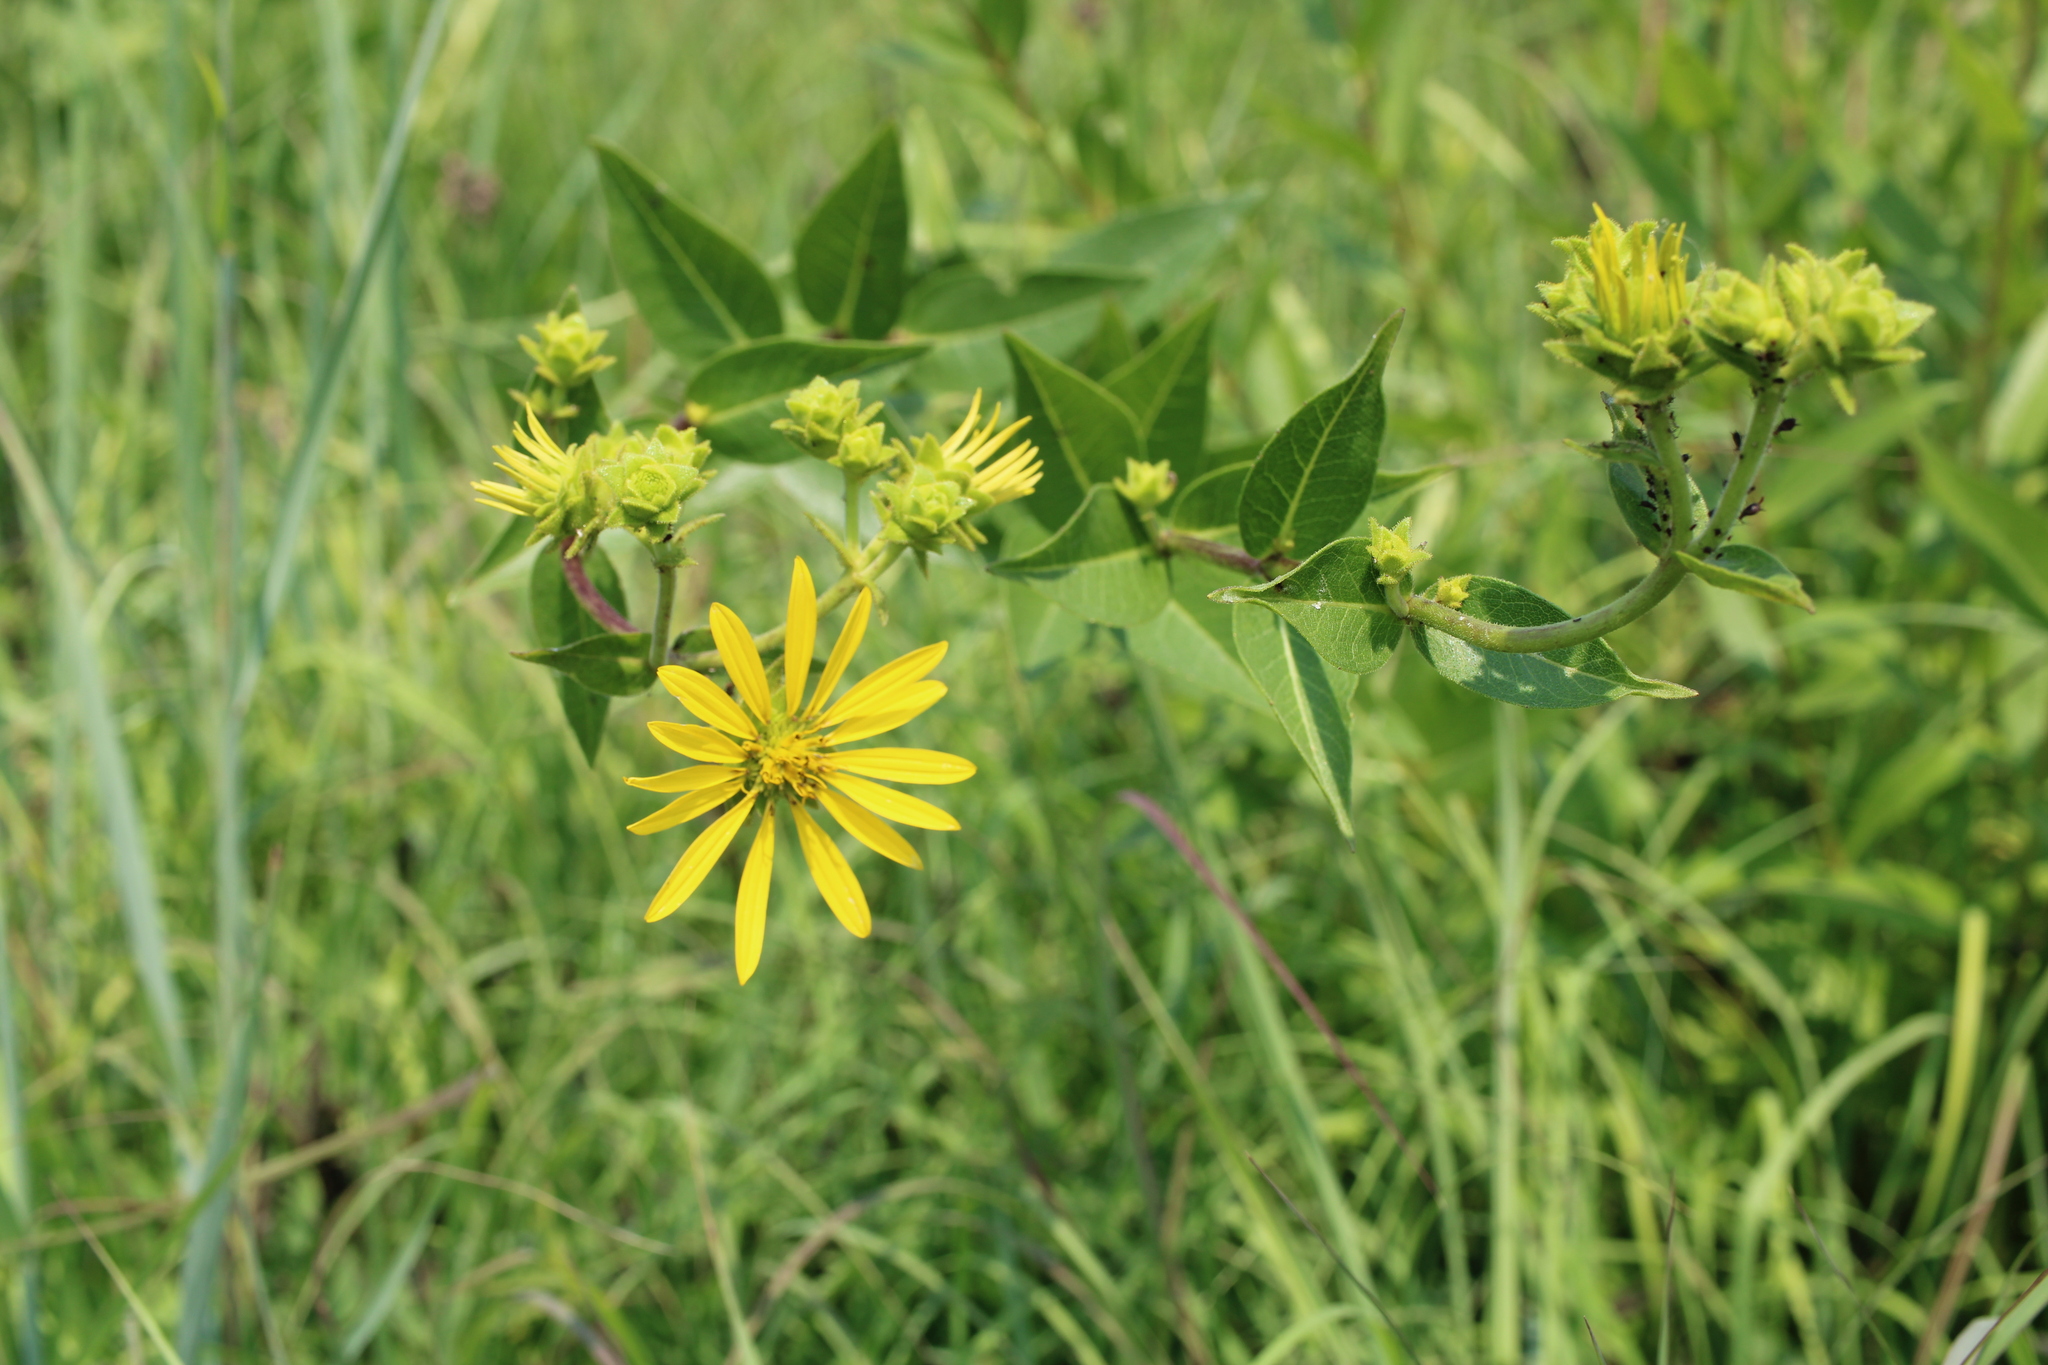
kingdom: Plantae
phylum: Tracheophyta
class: Magnoliopsida
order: Asterales
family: Asteraceae
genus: Silphium
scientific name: Silphium integrifolium
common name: Whole-leaf rosinweed
